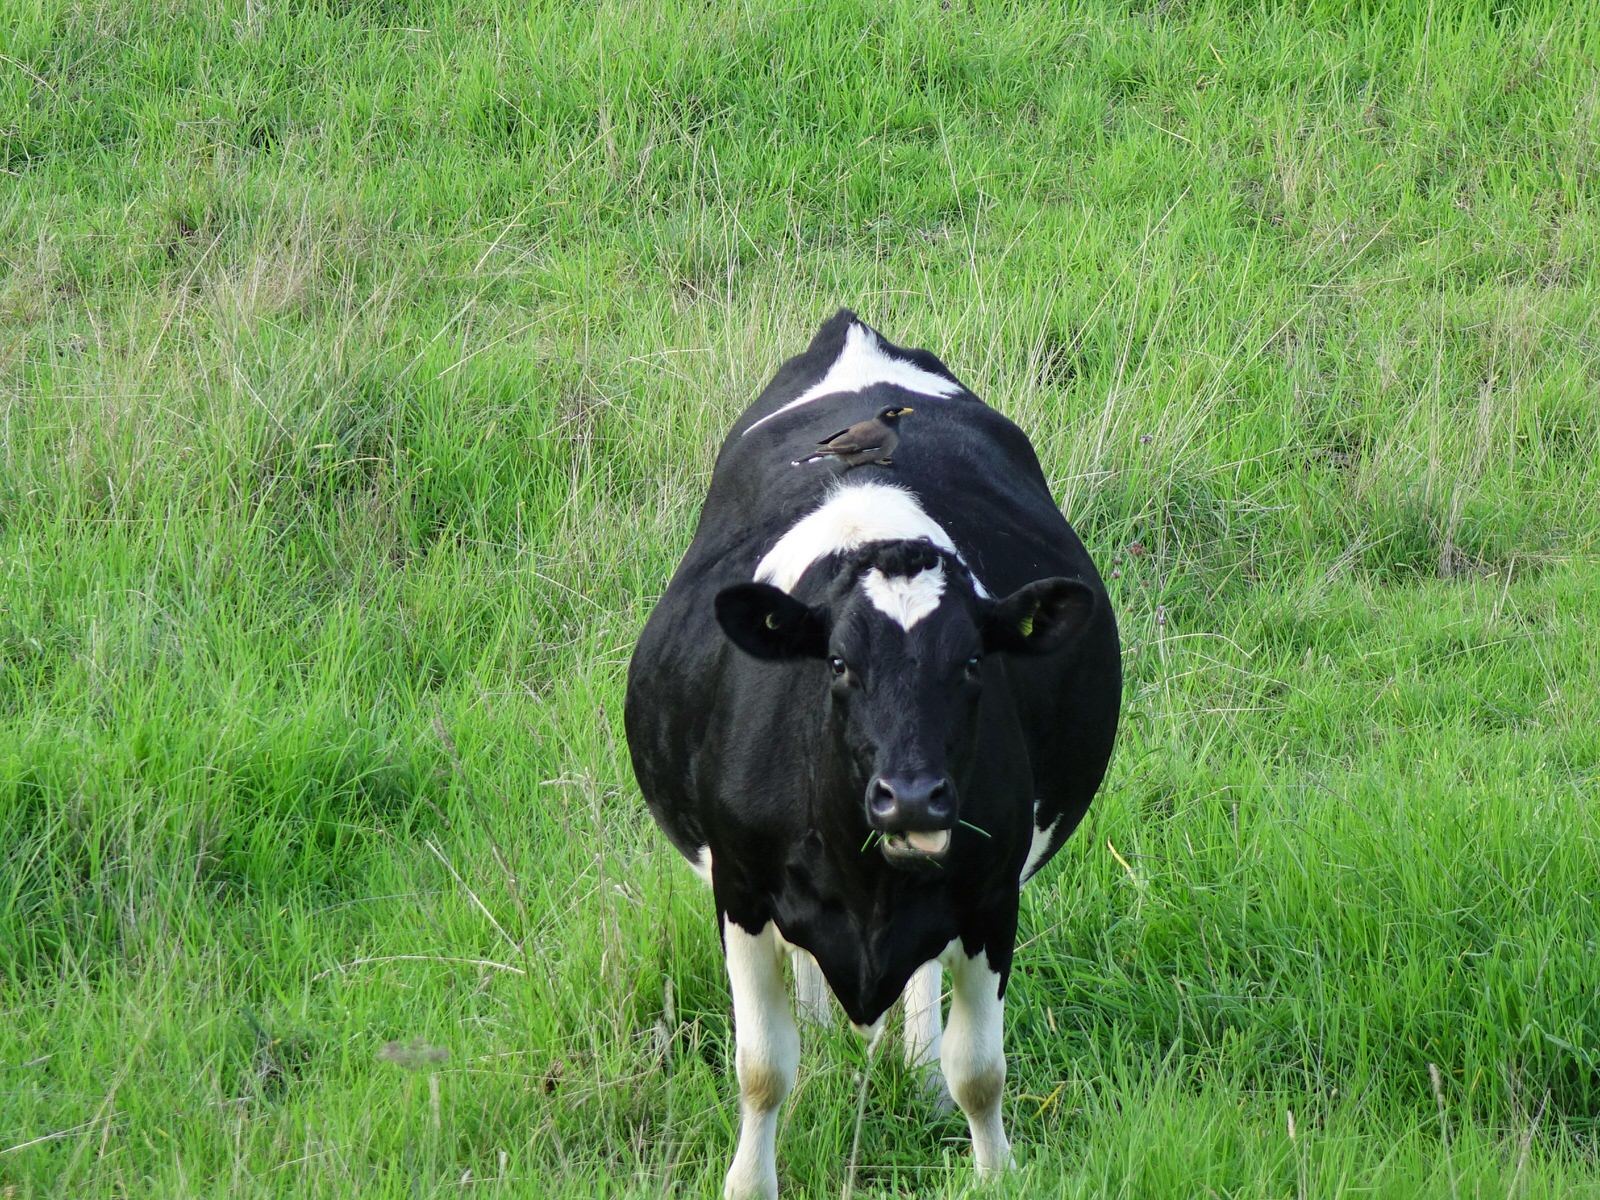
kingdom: Animalia
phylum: Chordata
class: Aves
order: Passeriformes
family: Sturnidae
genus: Acridotheres
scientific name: Acridotheres tristis
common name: Common myna
